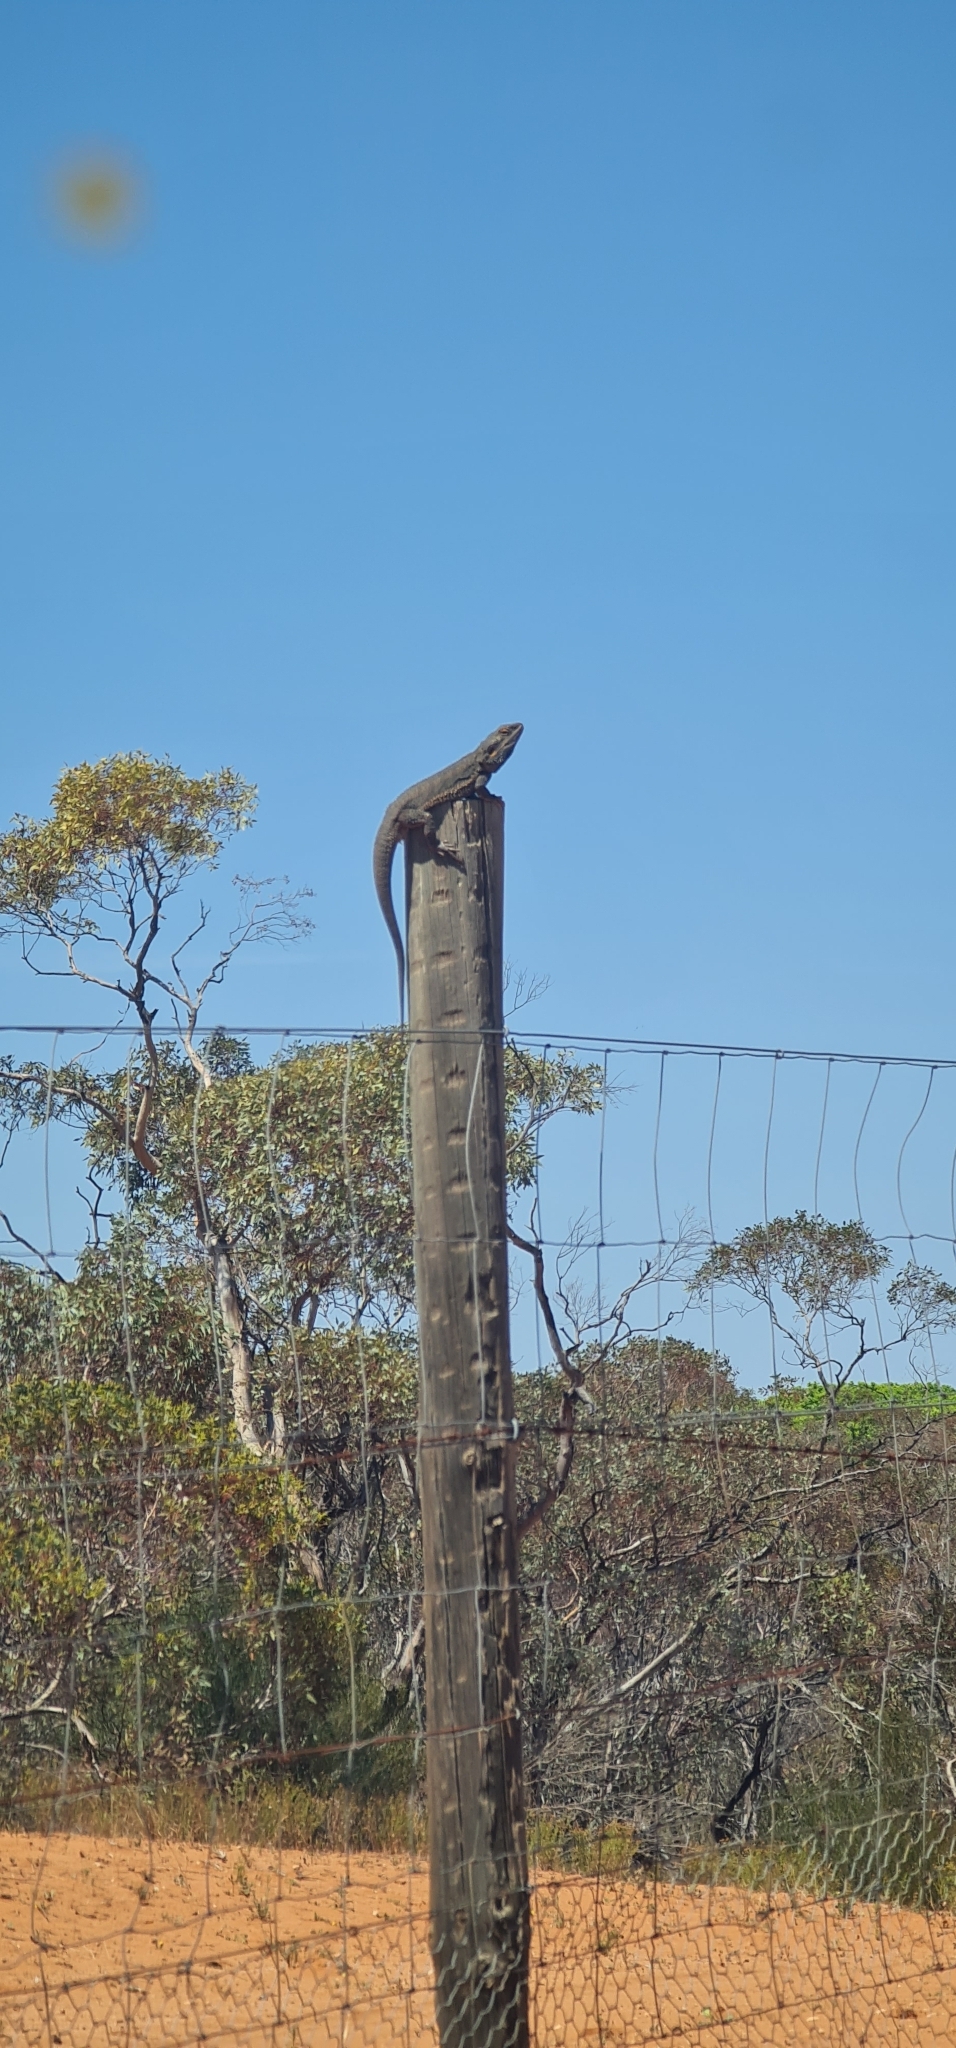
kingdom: Animalia
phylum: Chordata
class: Squamata
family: Agamidae
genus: Pogona
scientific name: Pogona vitticeps
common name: Central bearded dragon
